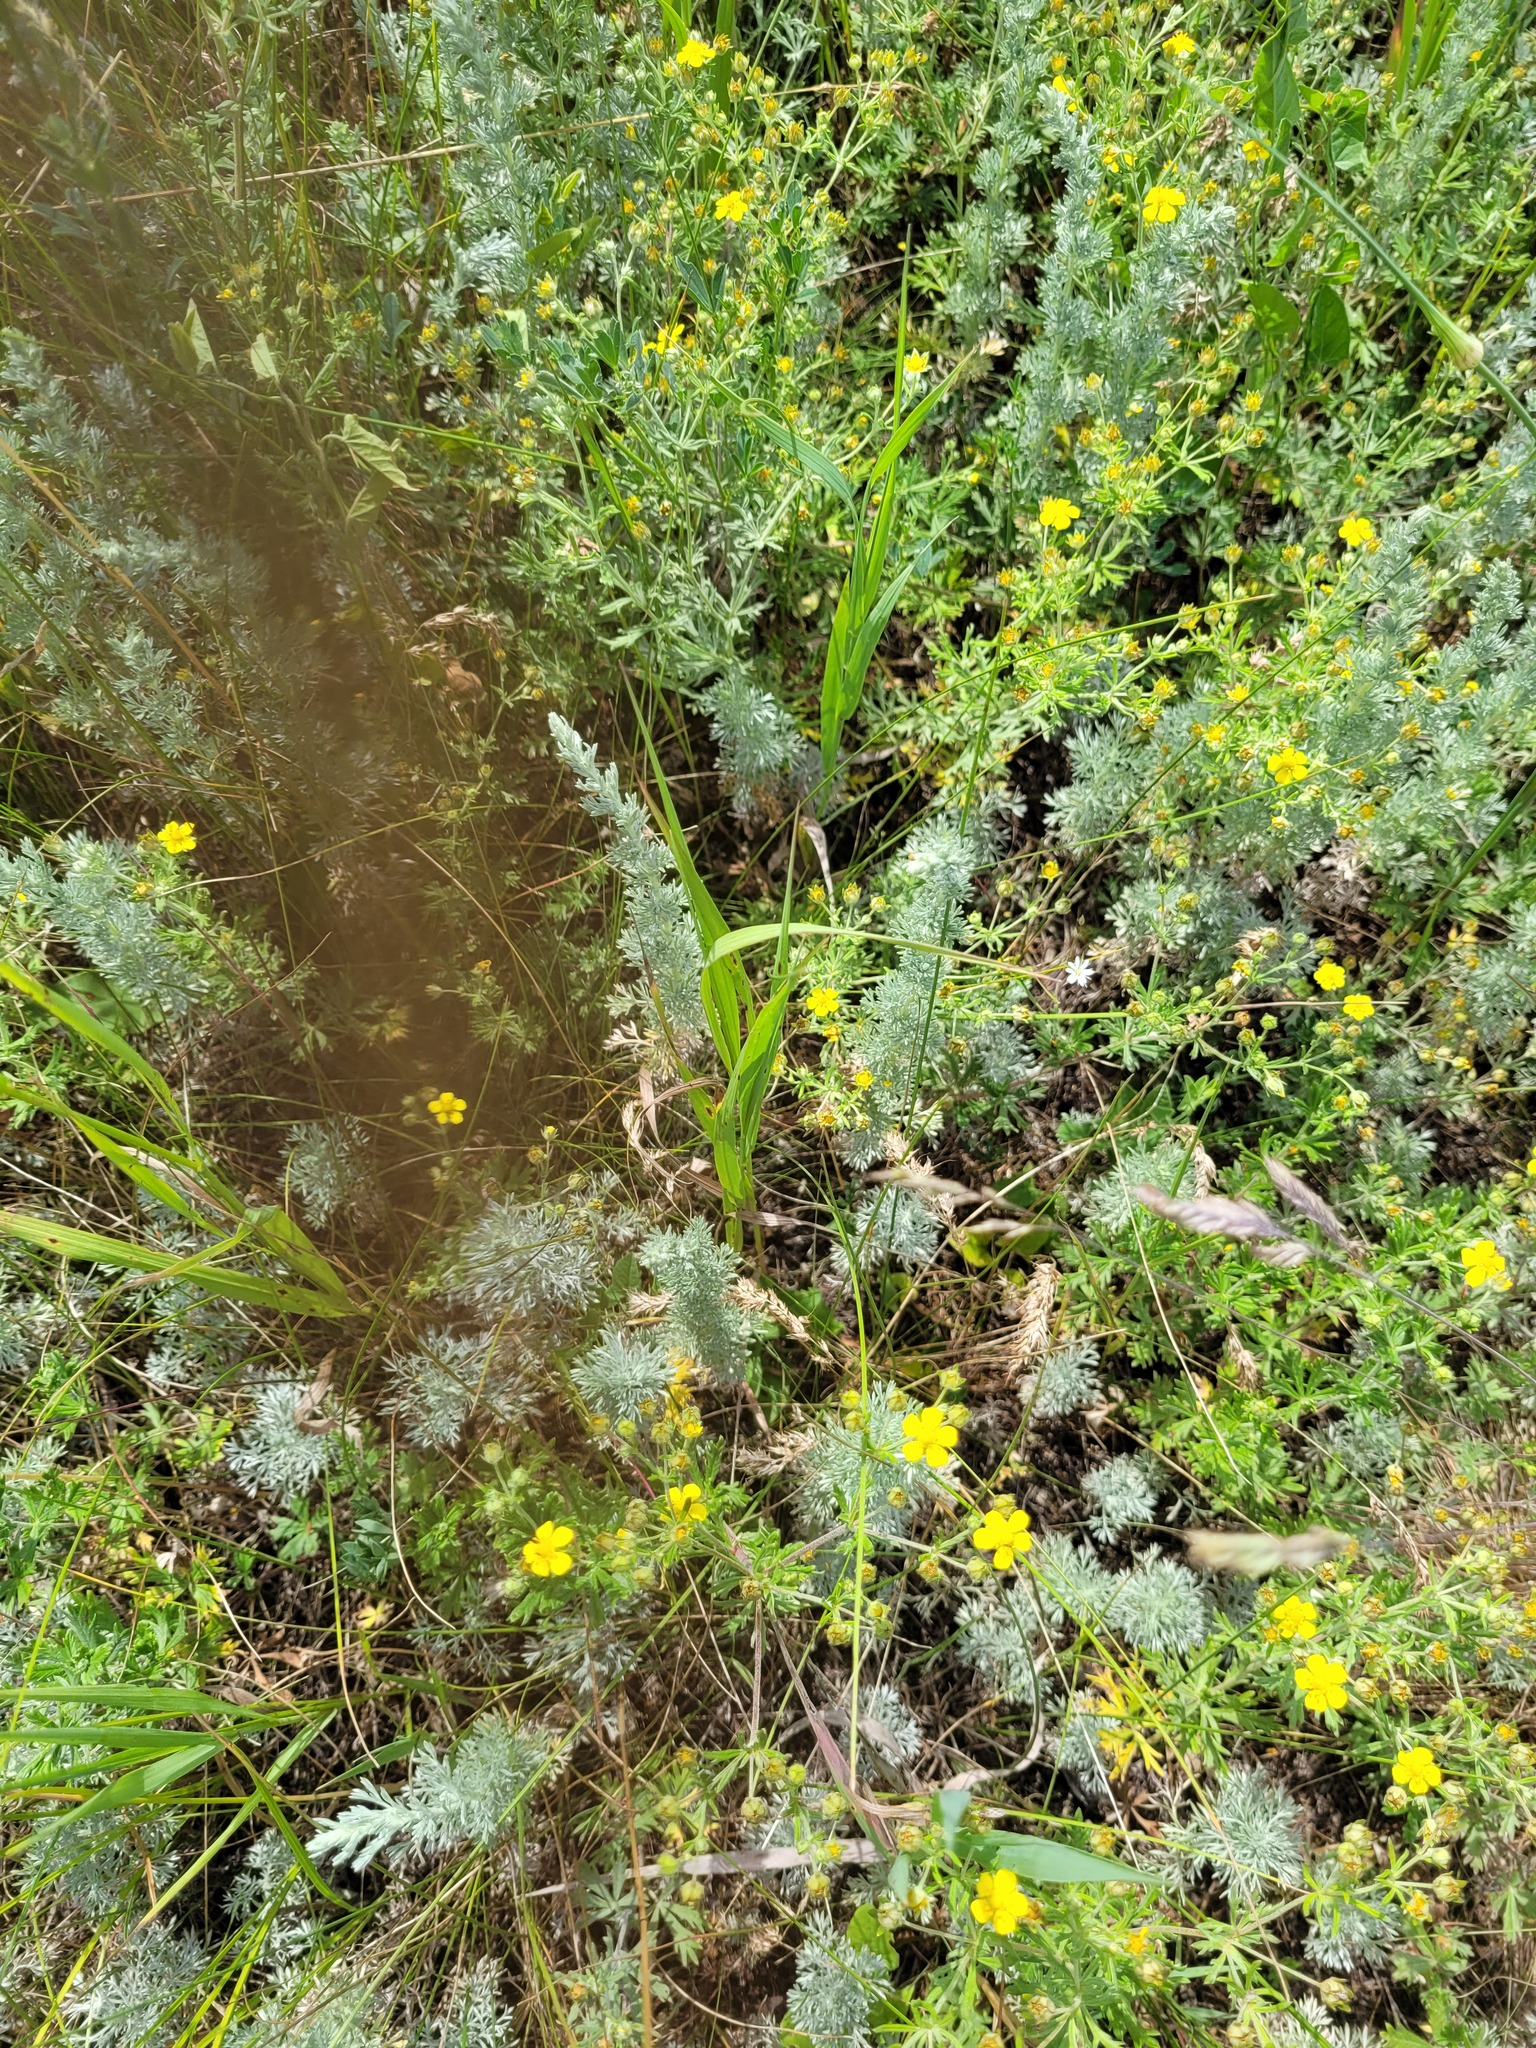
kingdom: Plantae
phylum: Tracheophyta
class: Magnoliopsida
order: Asterales
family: Asteraceae
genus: Artemisia
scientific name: Artemisia austriaca
